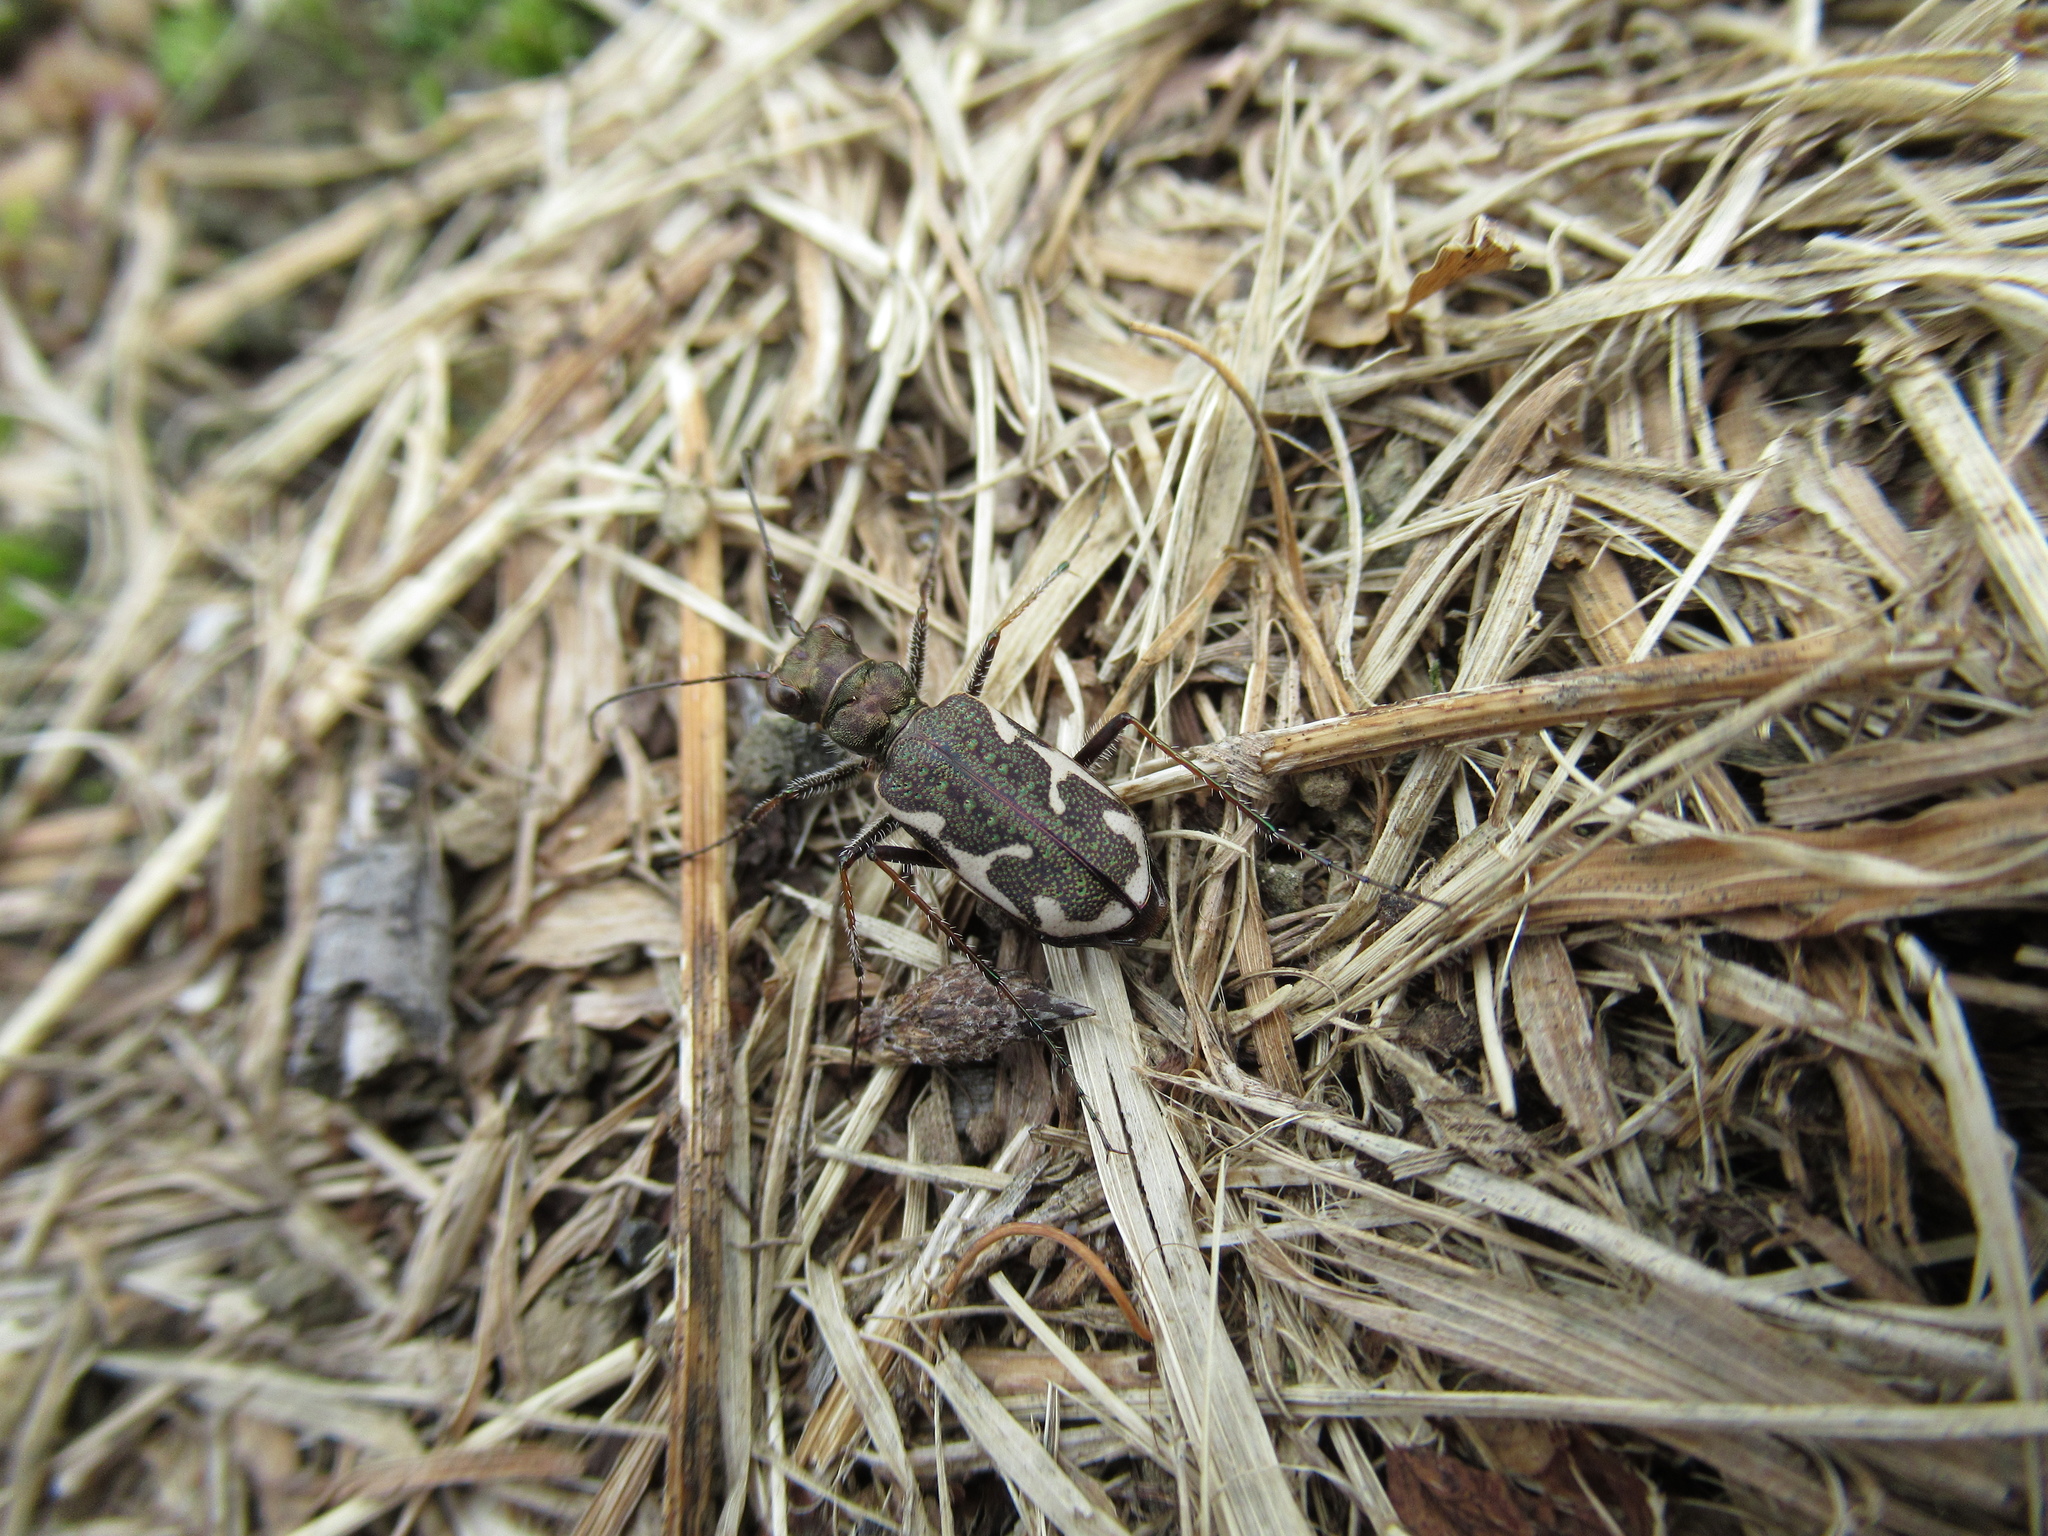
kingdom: Animalia
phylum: Arthropoda
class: Insecta
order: Coleoptera
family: Carabidae
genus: Neocicindela
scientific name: Neocicindela tuberculata
